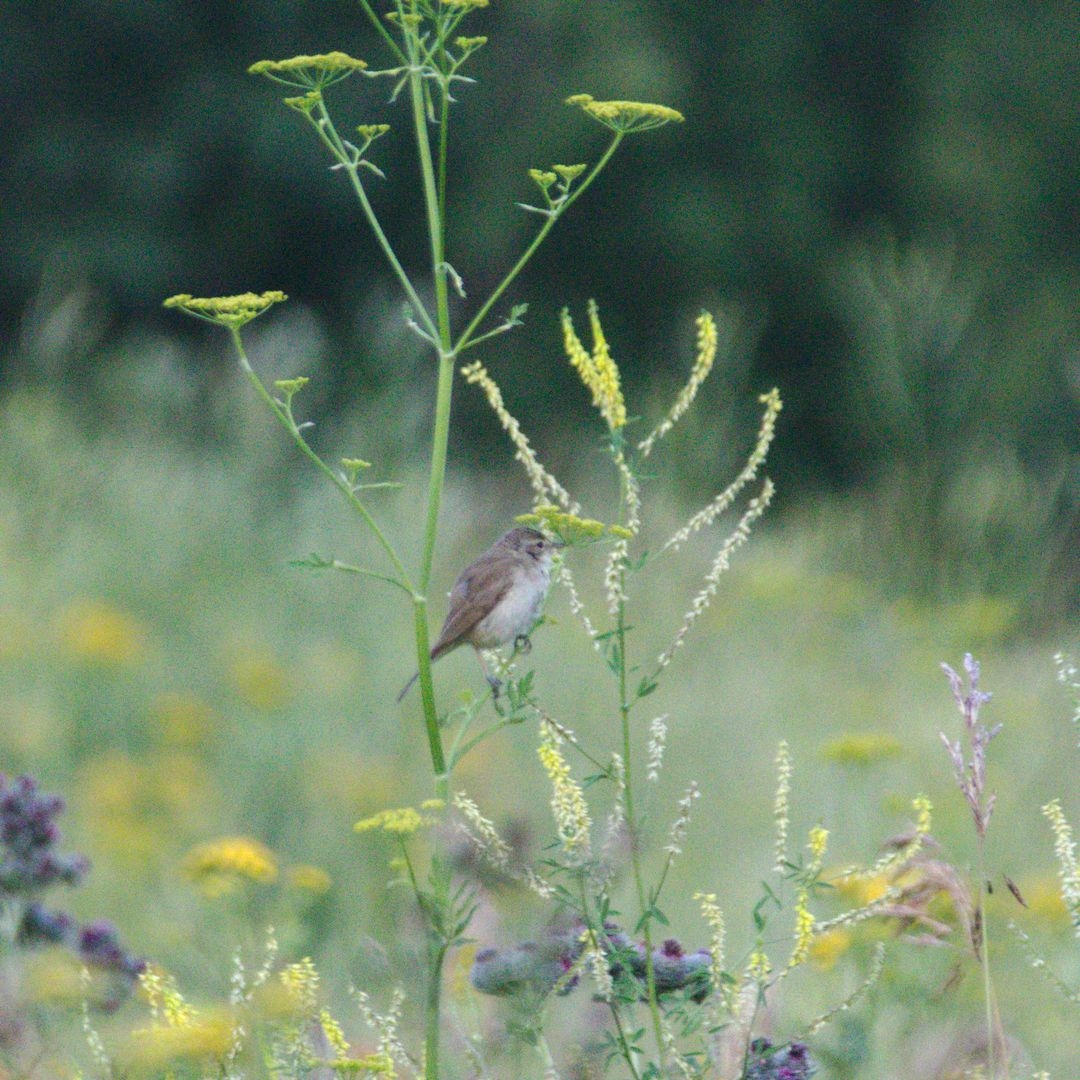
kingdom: Animalia
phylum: Chordata
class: Aves
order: Passeriformes
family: Acrocephalidae
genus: Iduna
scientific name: Iduna caligata
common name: Booted warbler
